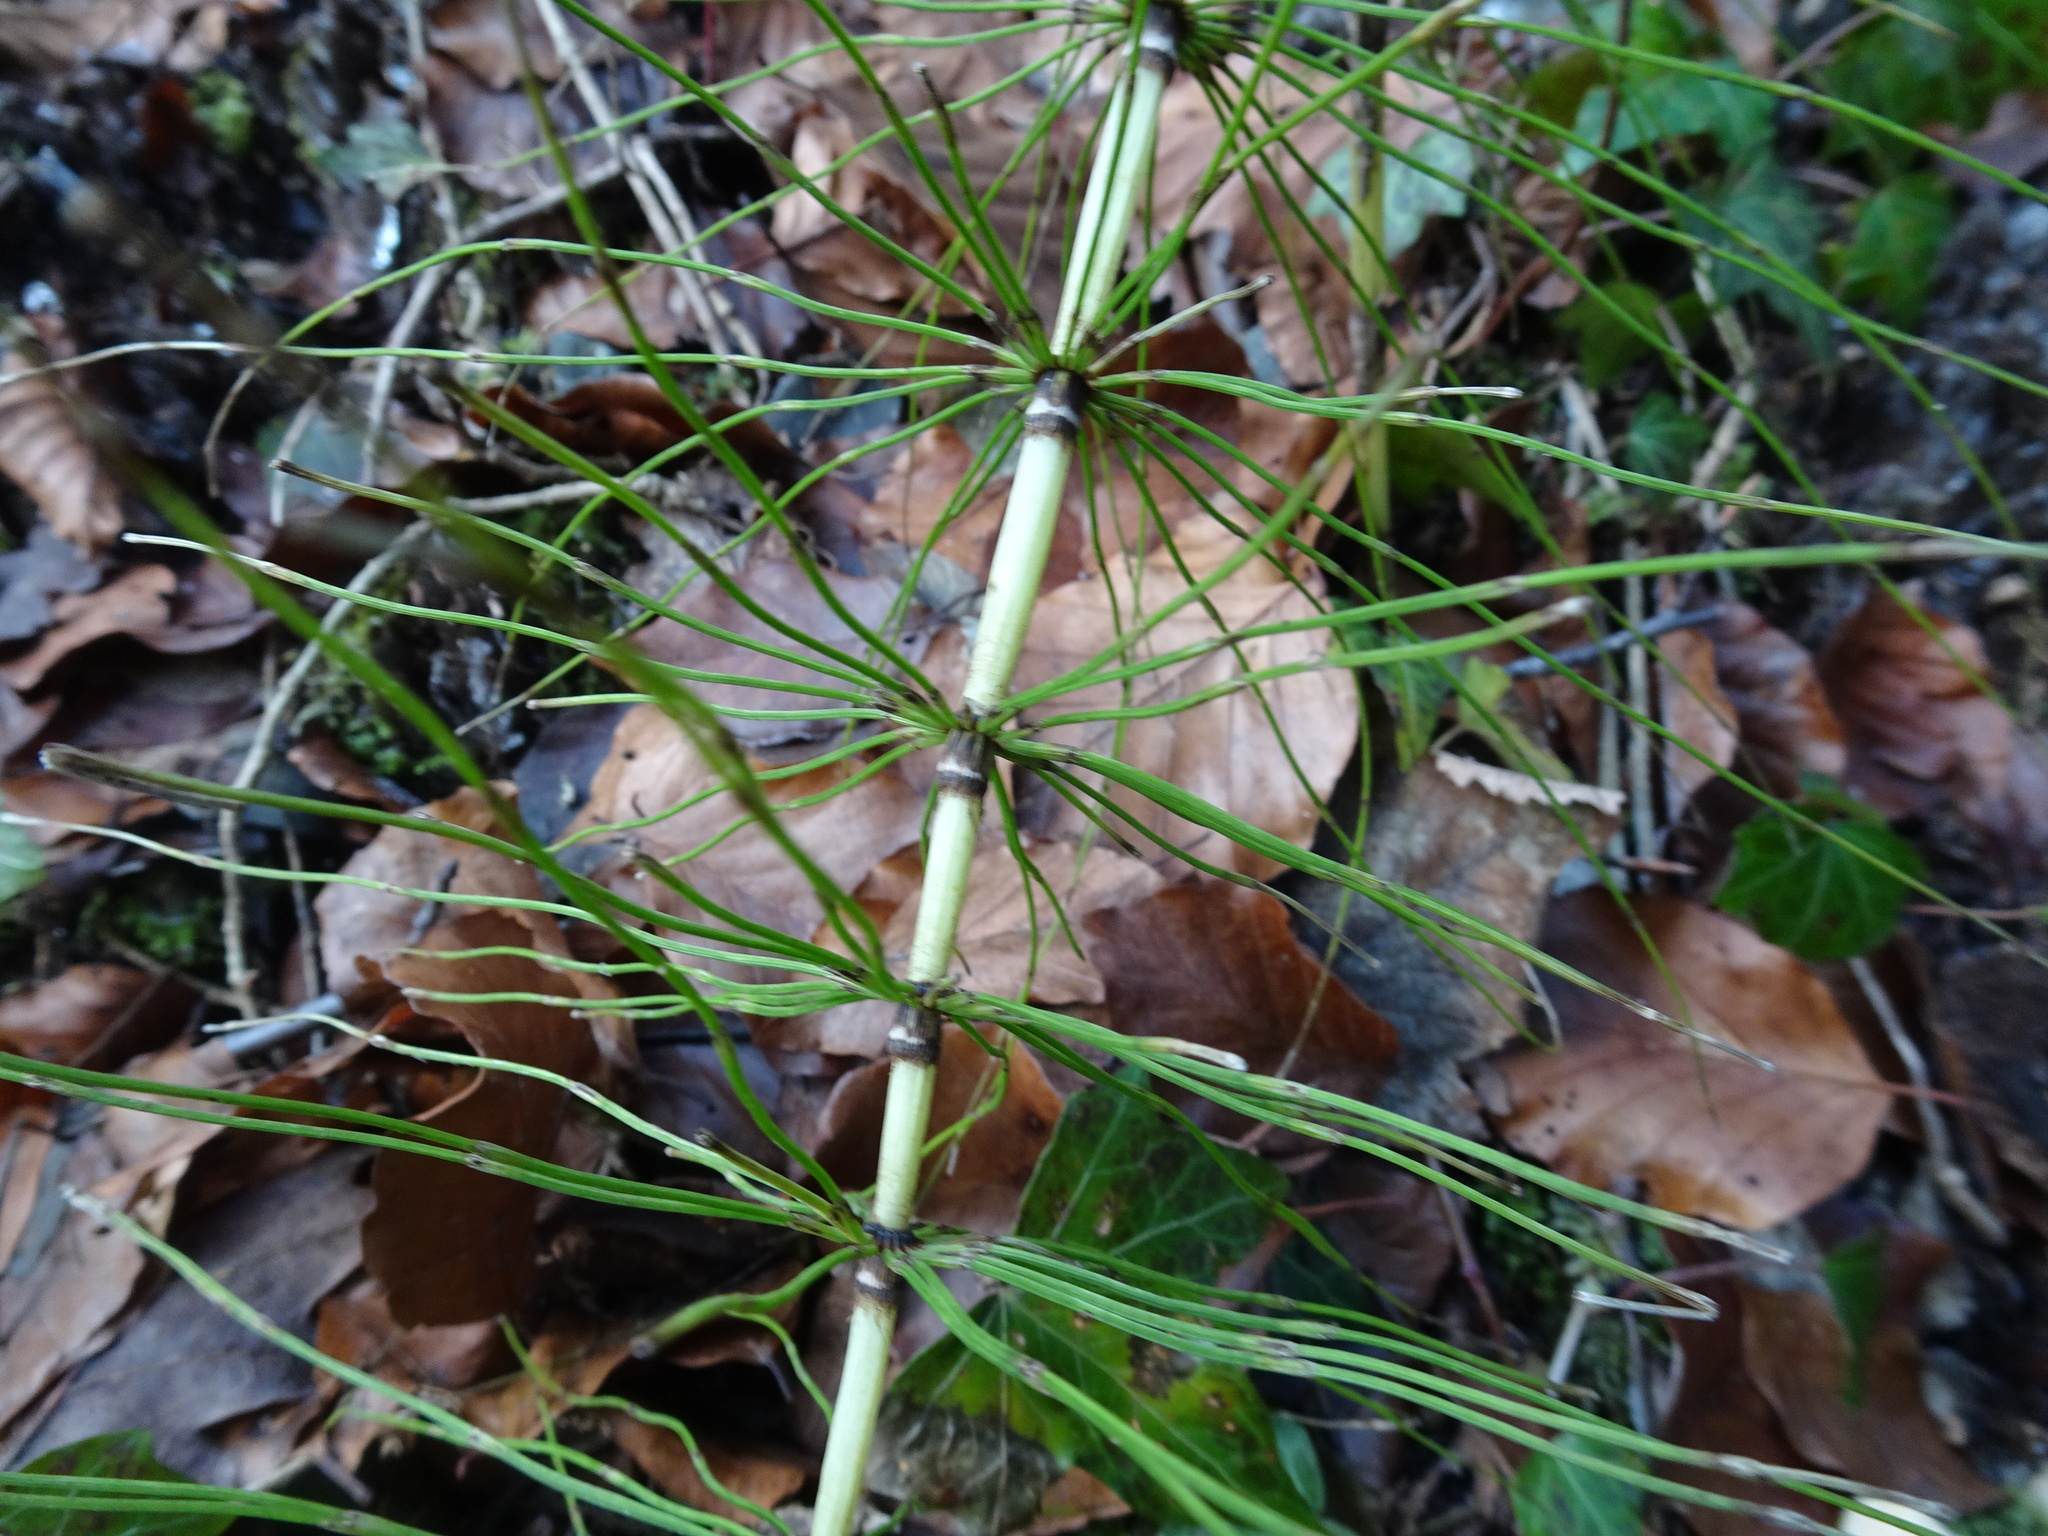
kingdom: Plantae
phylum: Tracheophyta
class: Polypodiopsida
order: Equisetales
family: Equisetaceae
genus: Equisetum
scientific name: Equisetum telmateia
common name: Great horsetail
